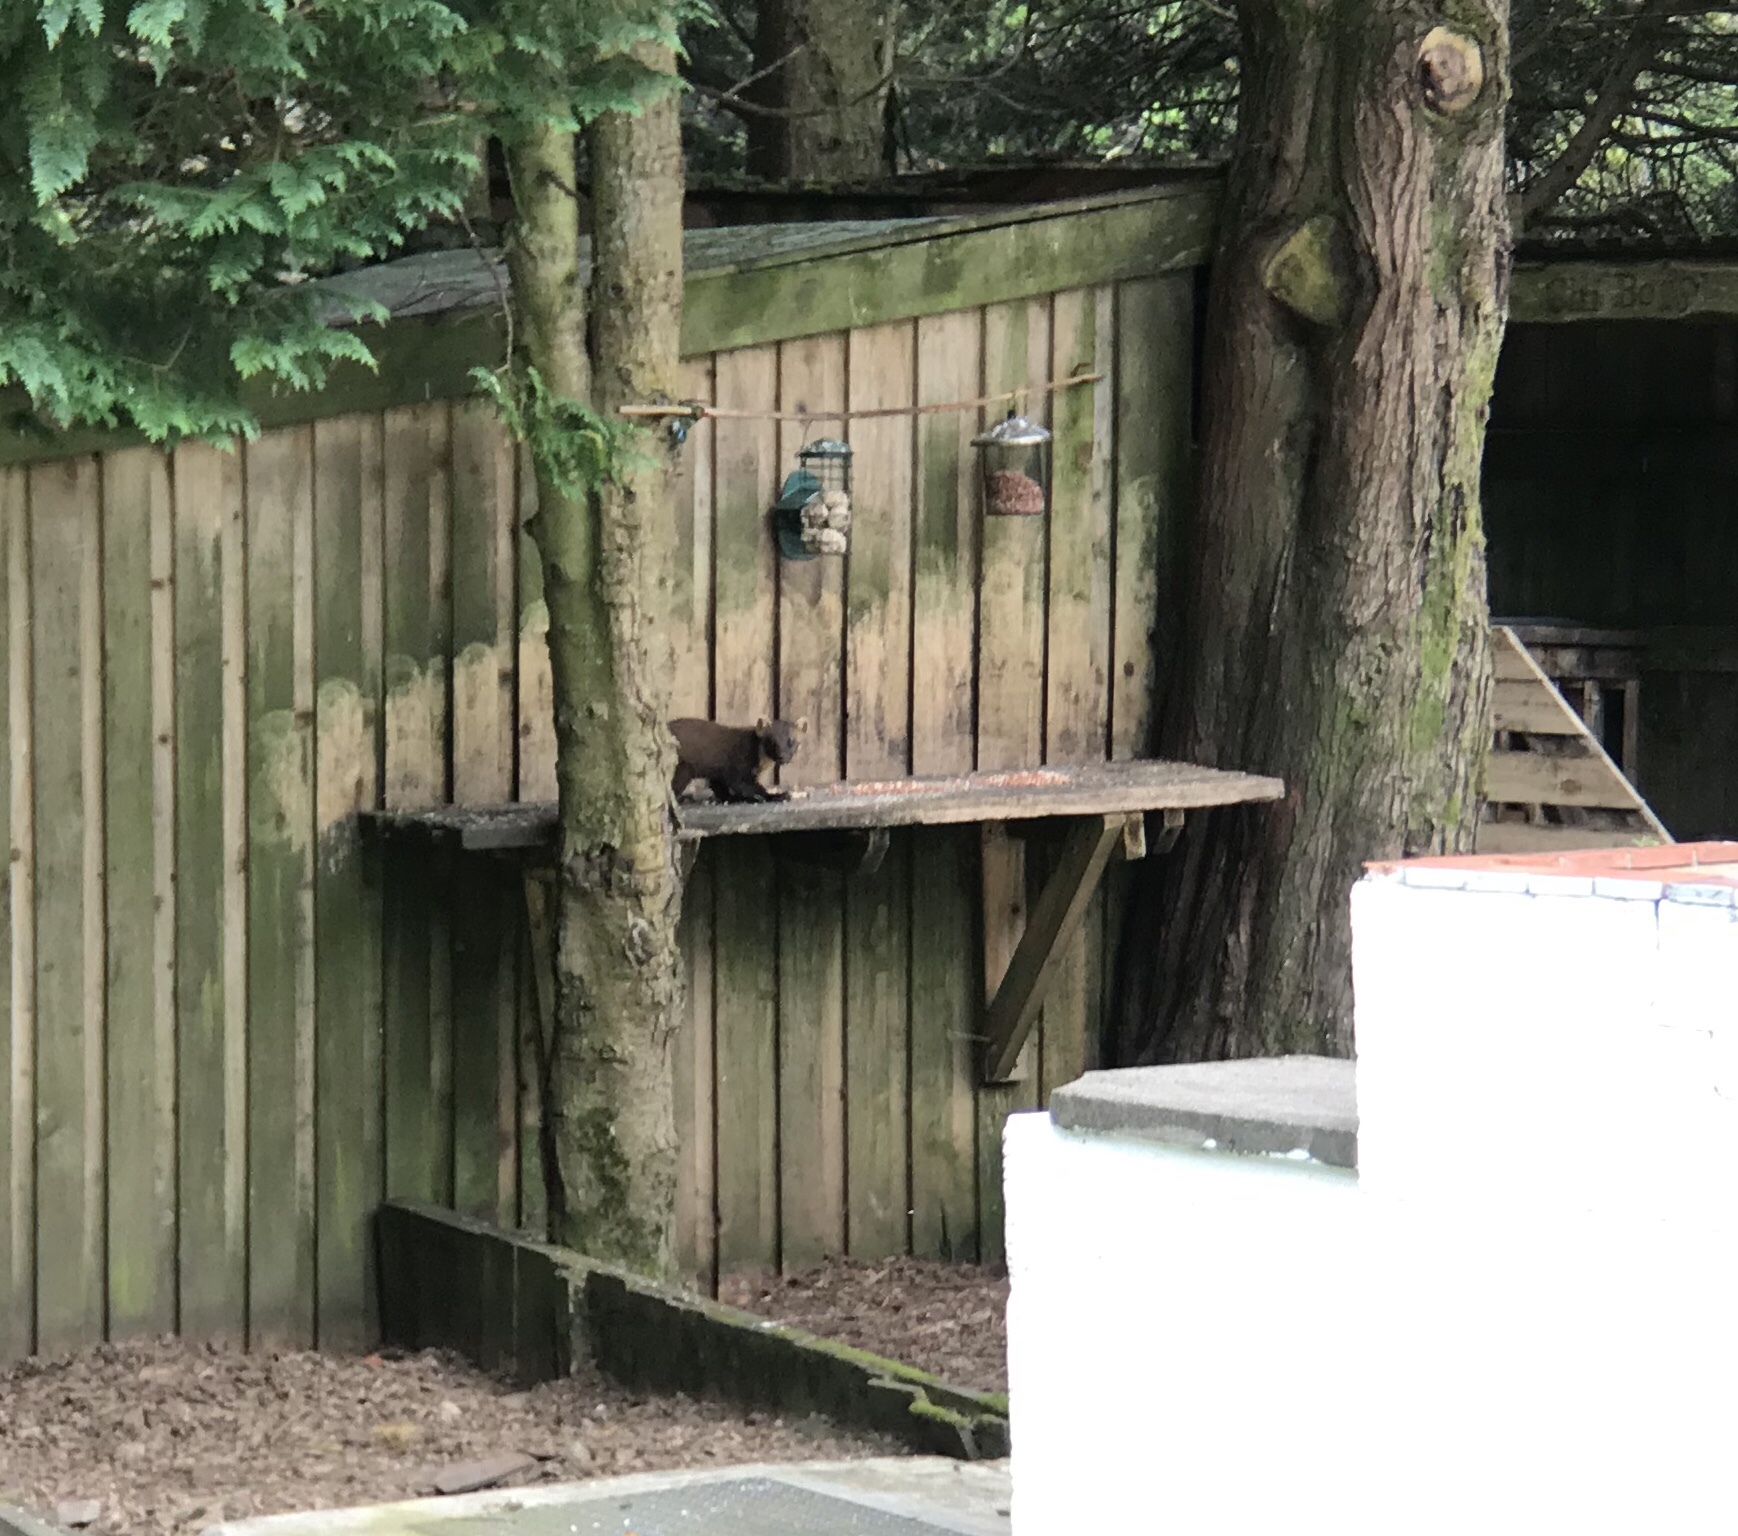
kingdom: Animalia
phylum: Chordata
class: Mammalia
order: Carnivora
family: Mustelidae
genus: Martes
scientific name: Martes martes
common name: European pine marten
